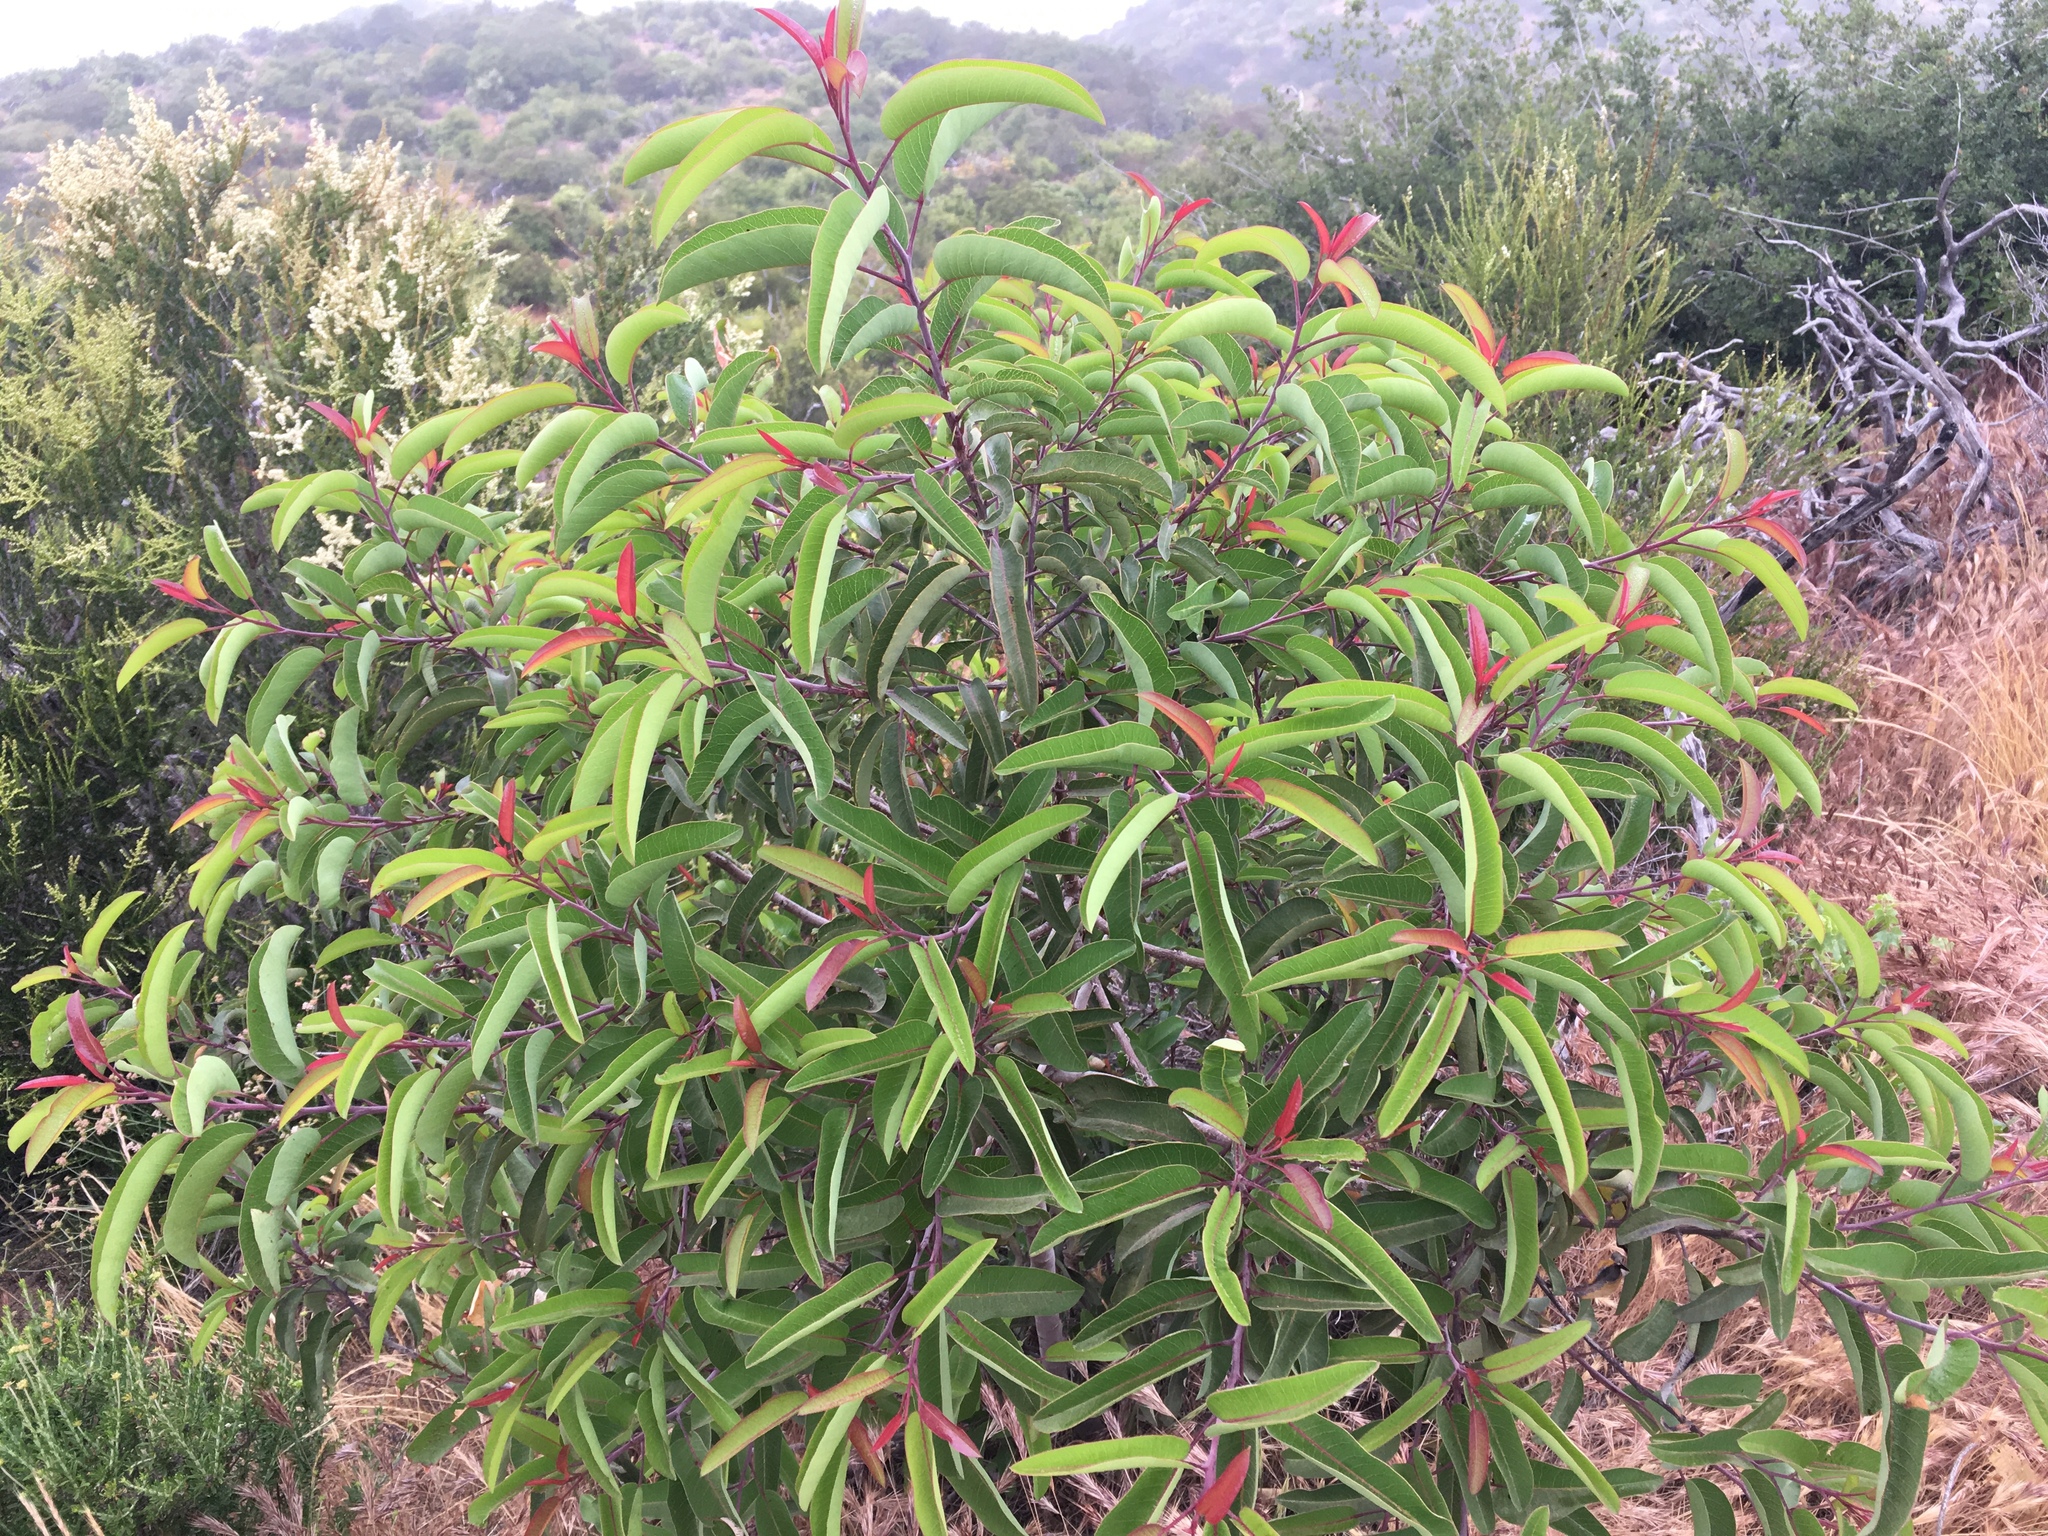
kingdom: Plantae
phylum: Tracheophyta
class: Magnoliopsida
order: Sapindales
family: Anacardiaceae
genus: Malosma
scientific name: Malosma laurina
